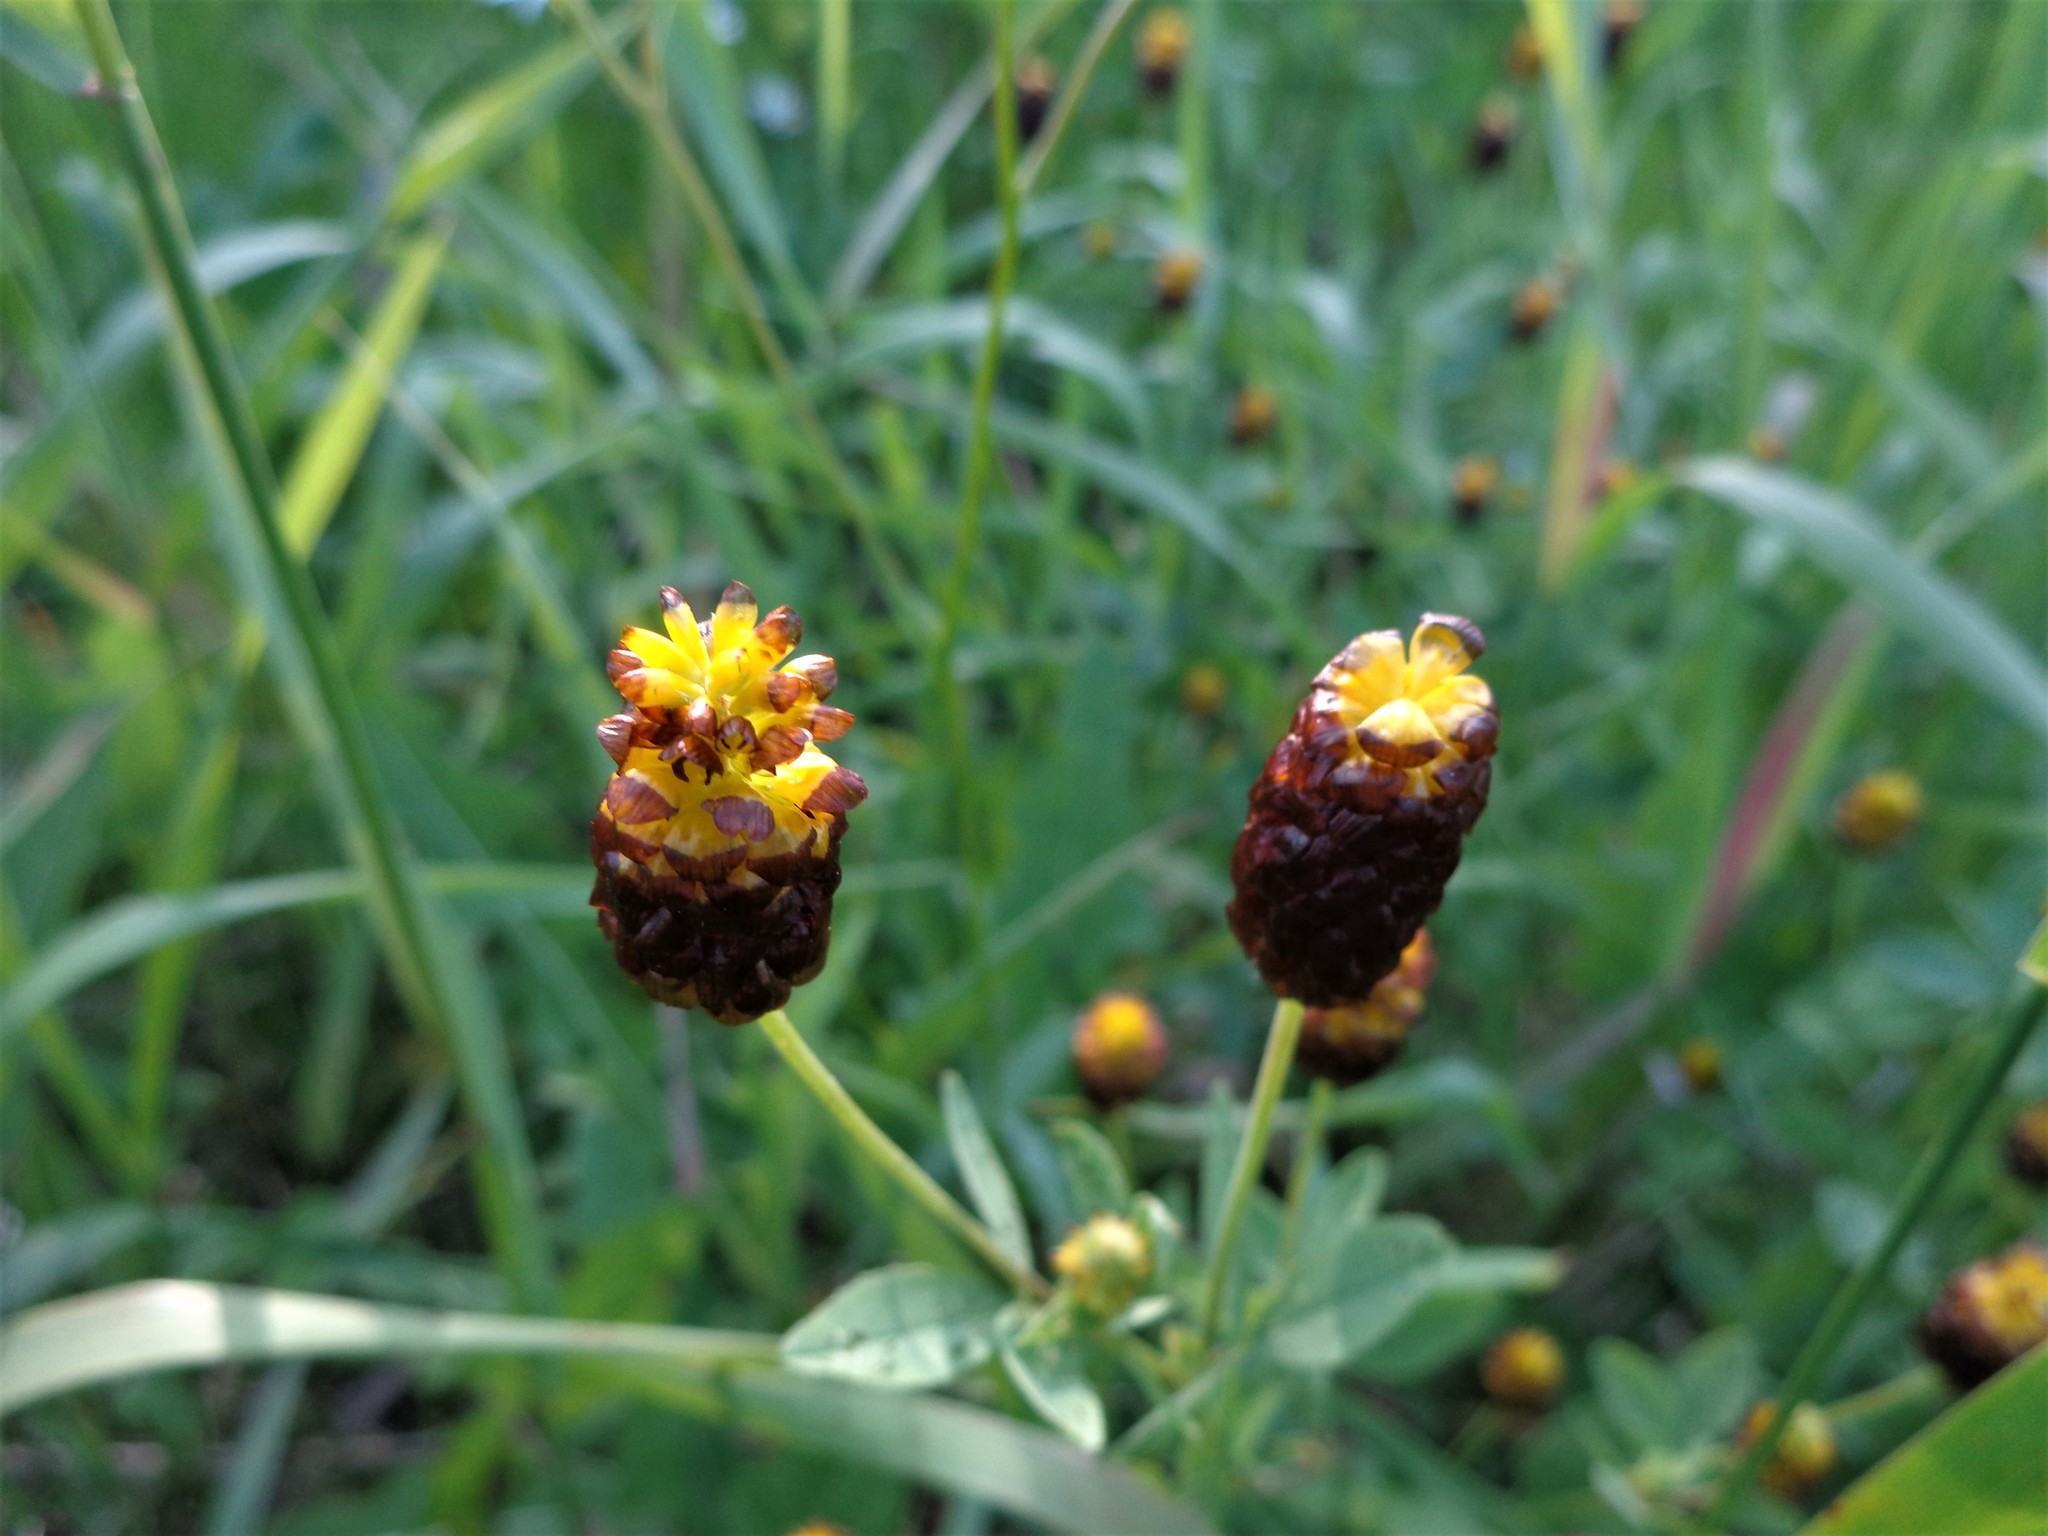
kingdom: Plantae
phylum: Tracheophyta
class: Magnoliopsida
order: Fabales
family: Fabaceae
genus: Trifolium
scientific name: Trifolium spadiceum
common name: Brown moor clover
